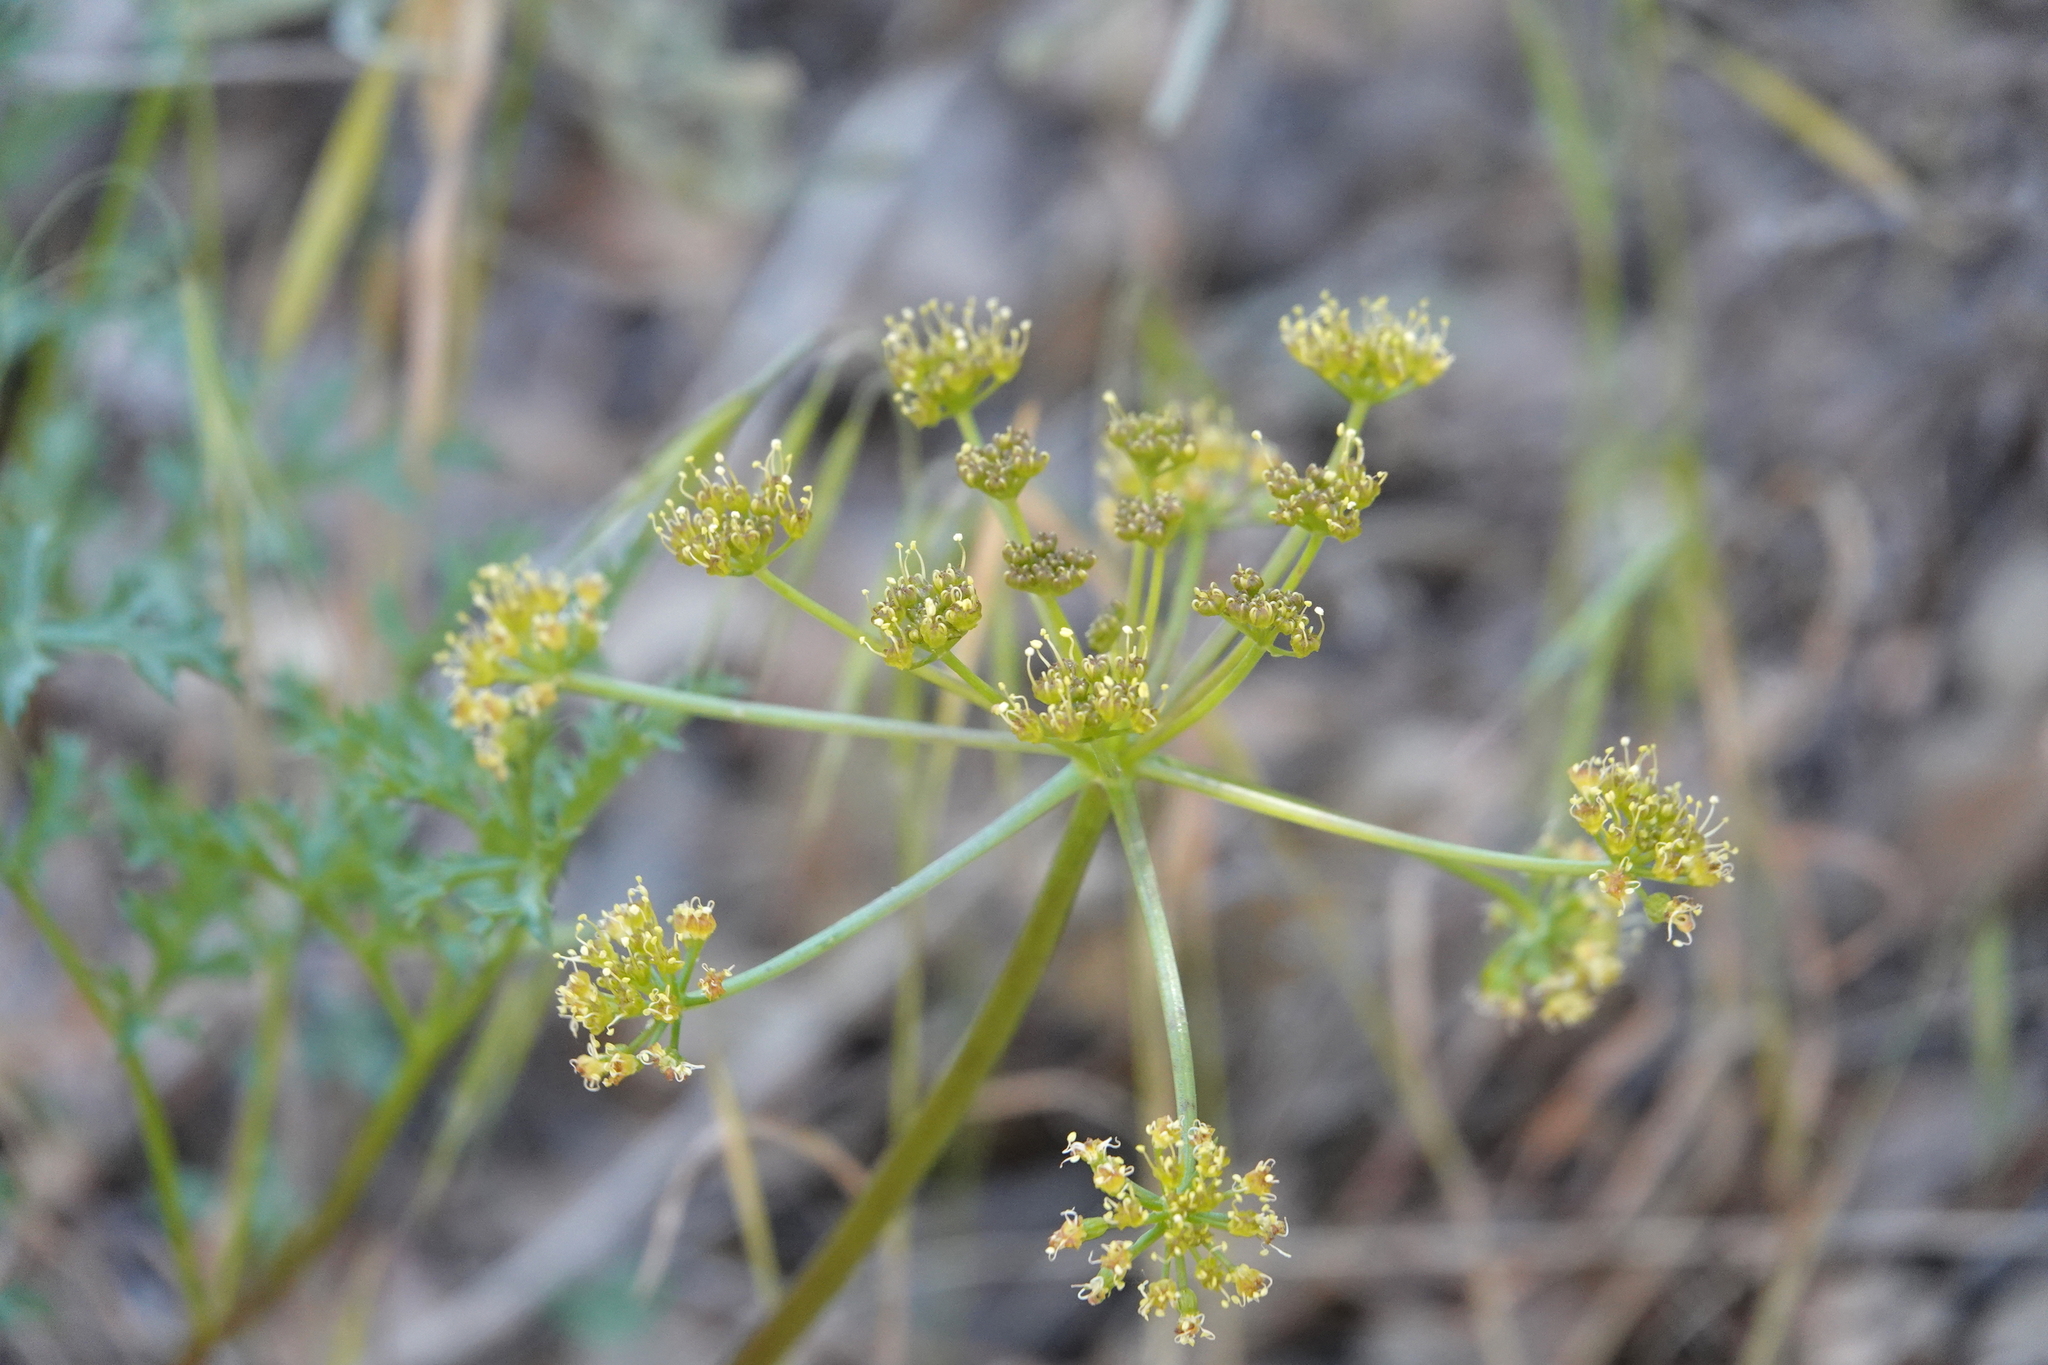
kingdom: Plantae
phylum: Tracheophyta
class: Magnoliopsida
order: Apiales
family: Apiaceae
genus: Tauschia
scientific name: Tauschia parishii
